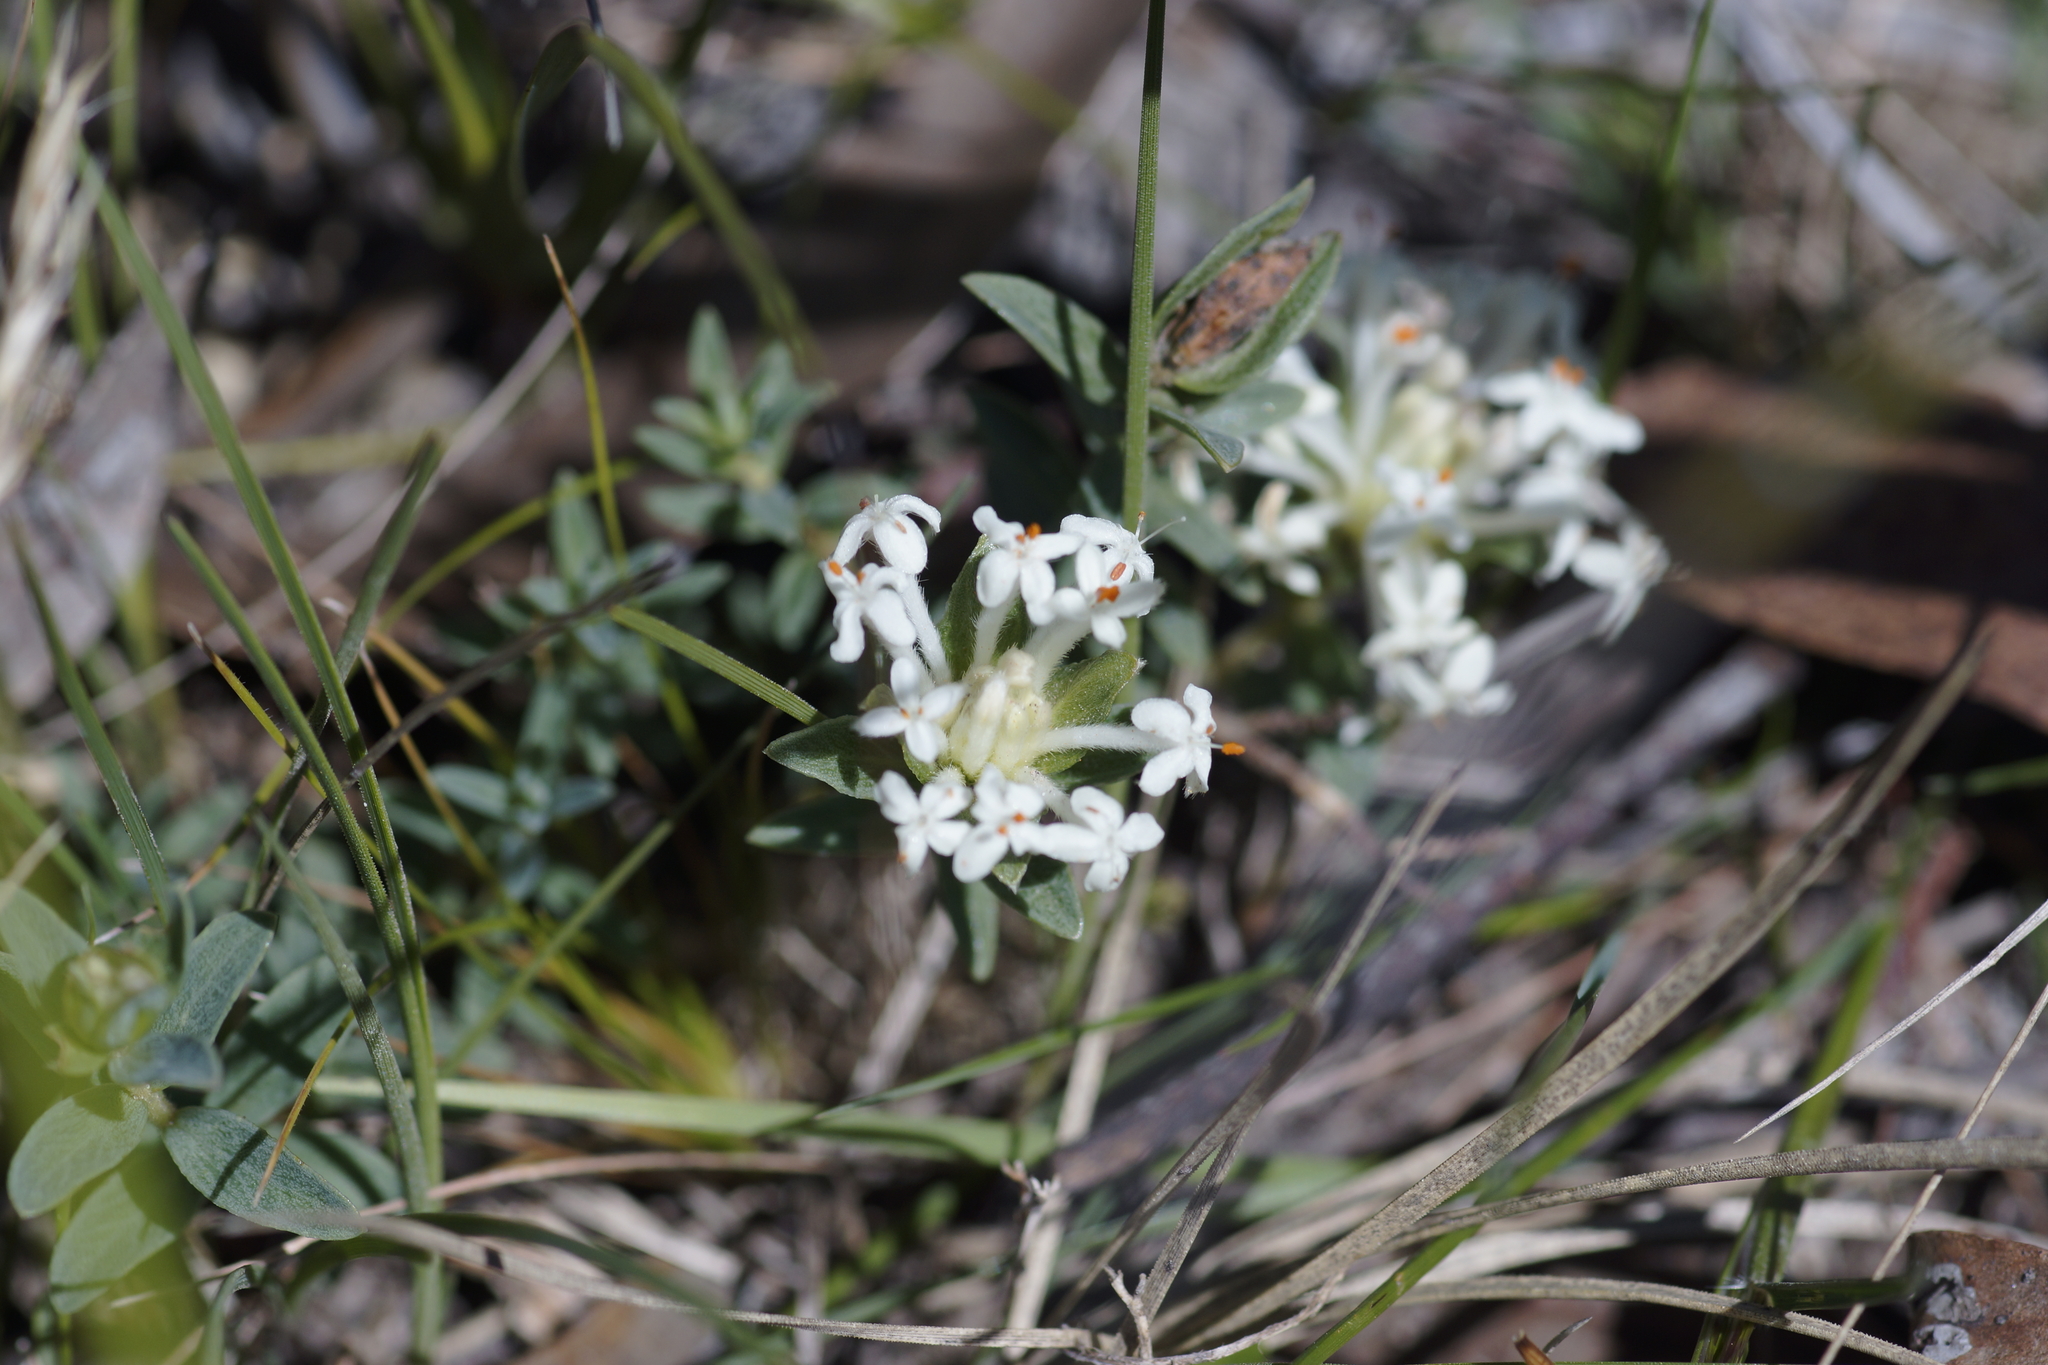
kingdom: Plantae
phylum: Tracheophyta
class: Magnoliopsida
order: Malvales
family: Thymelaeaceae
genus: Pimelea
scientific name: Pimelea humilis
